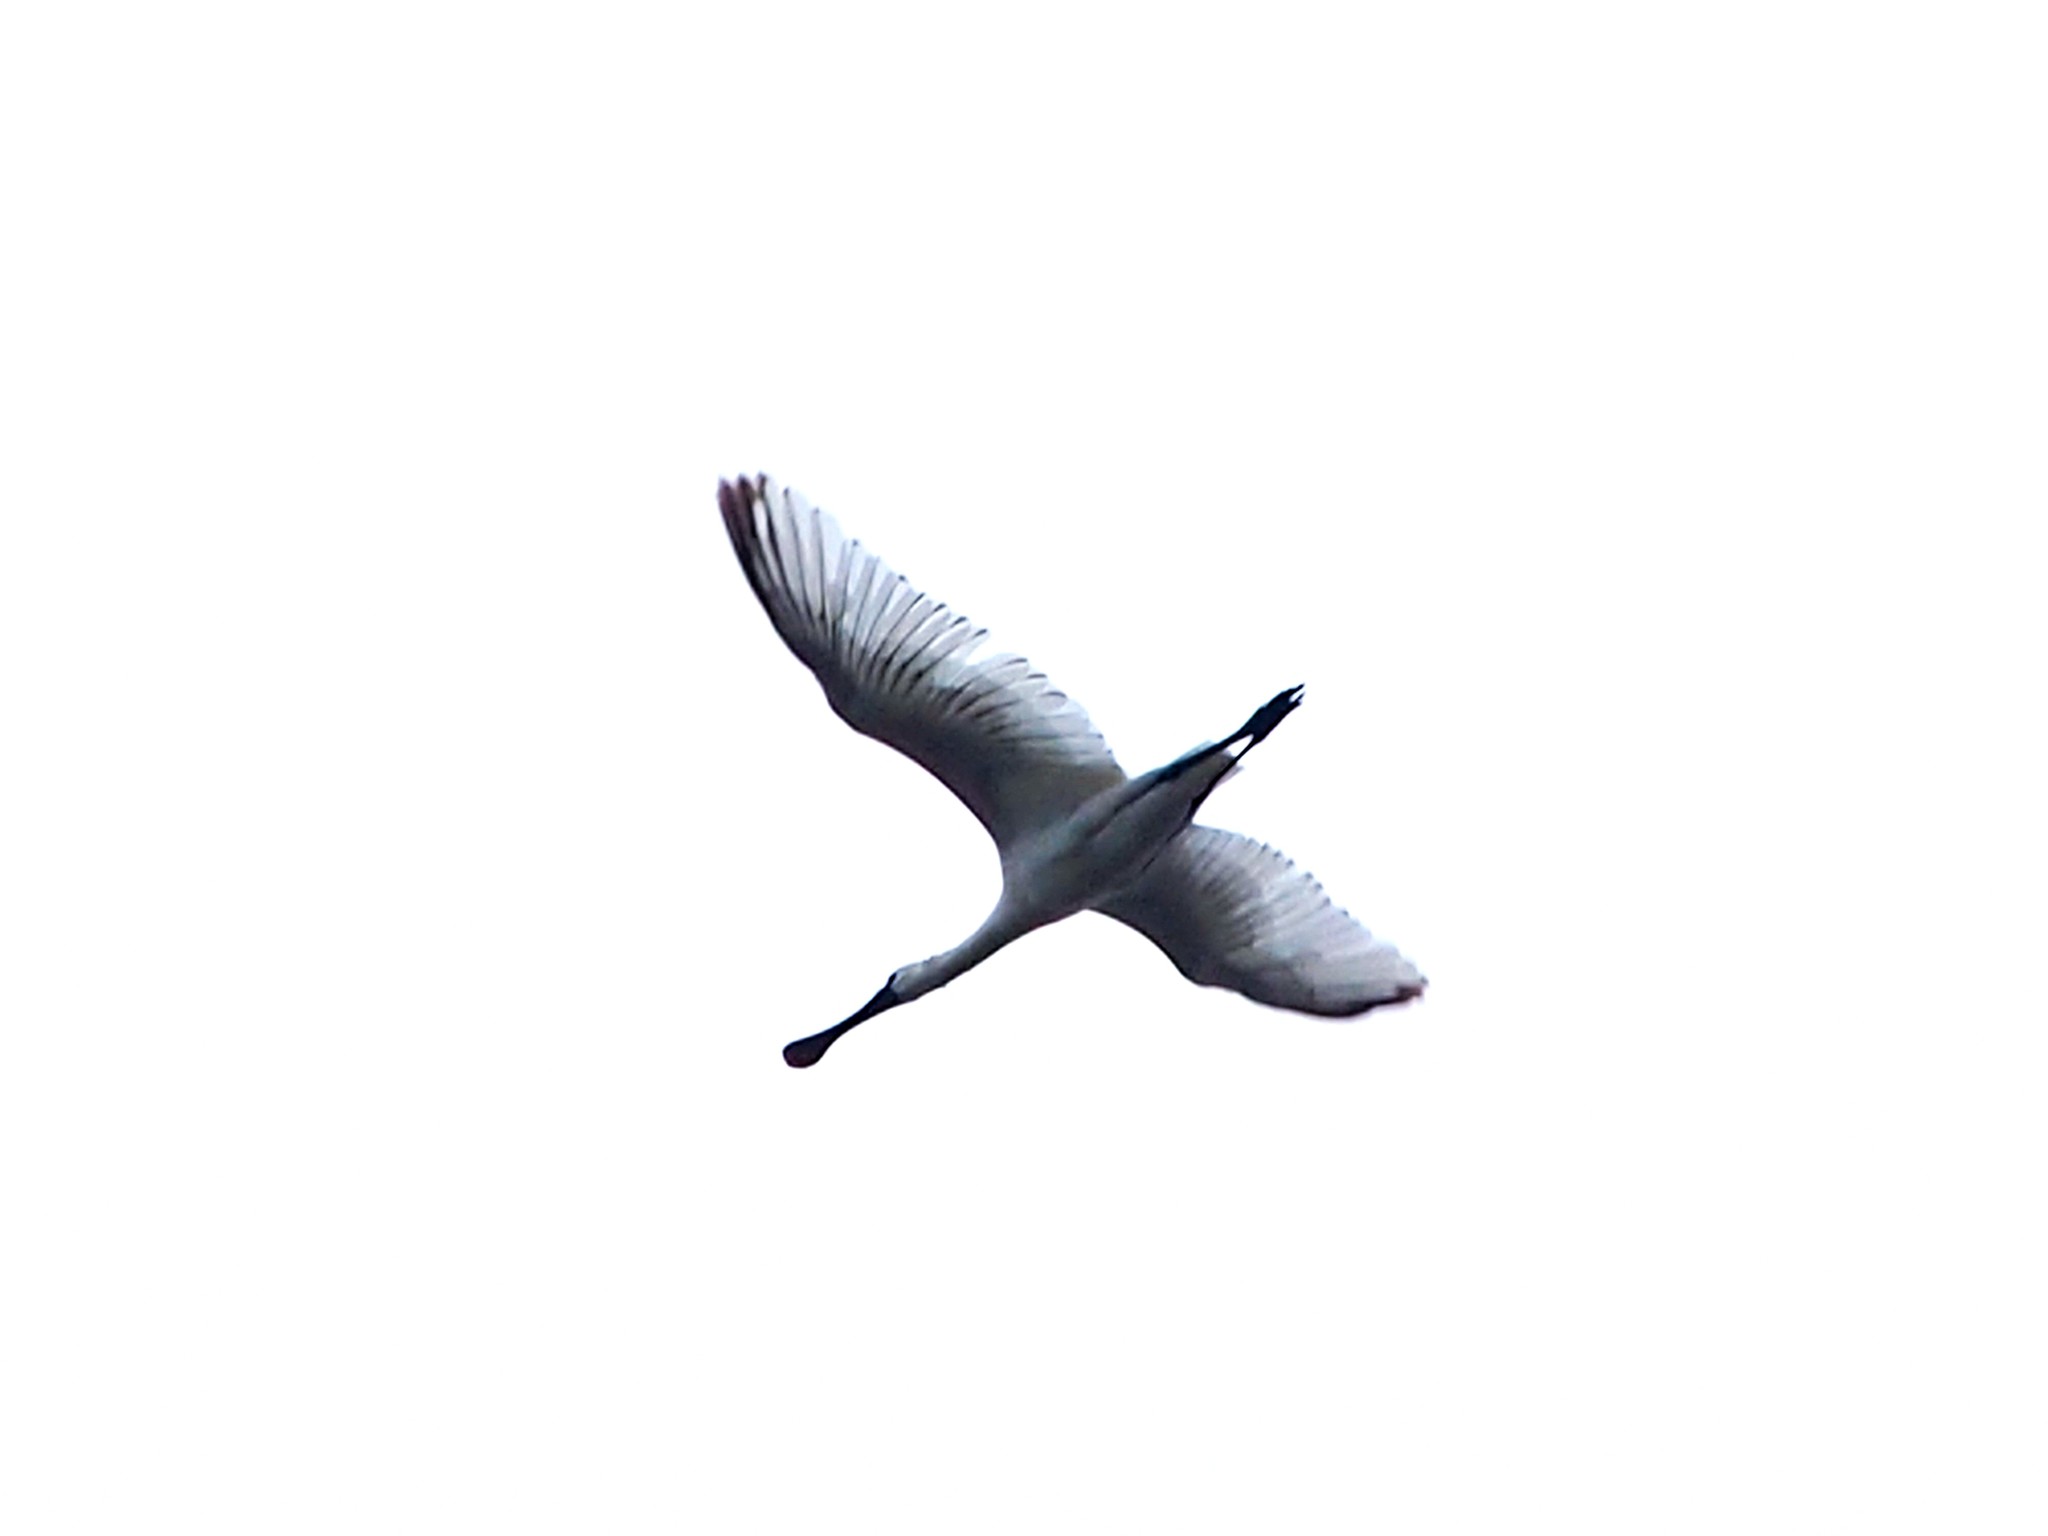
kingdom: Animalia
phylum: Chordata
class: Aves
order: Pelecaniformes
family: Threskiornithidae
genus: Platalea
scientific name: Platalea minor
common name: Black-faced spoonbill
